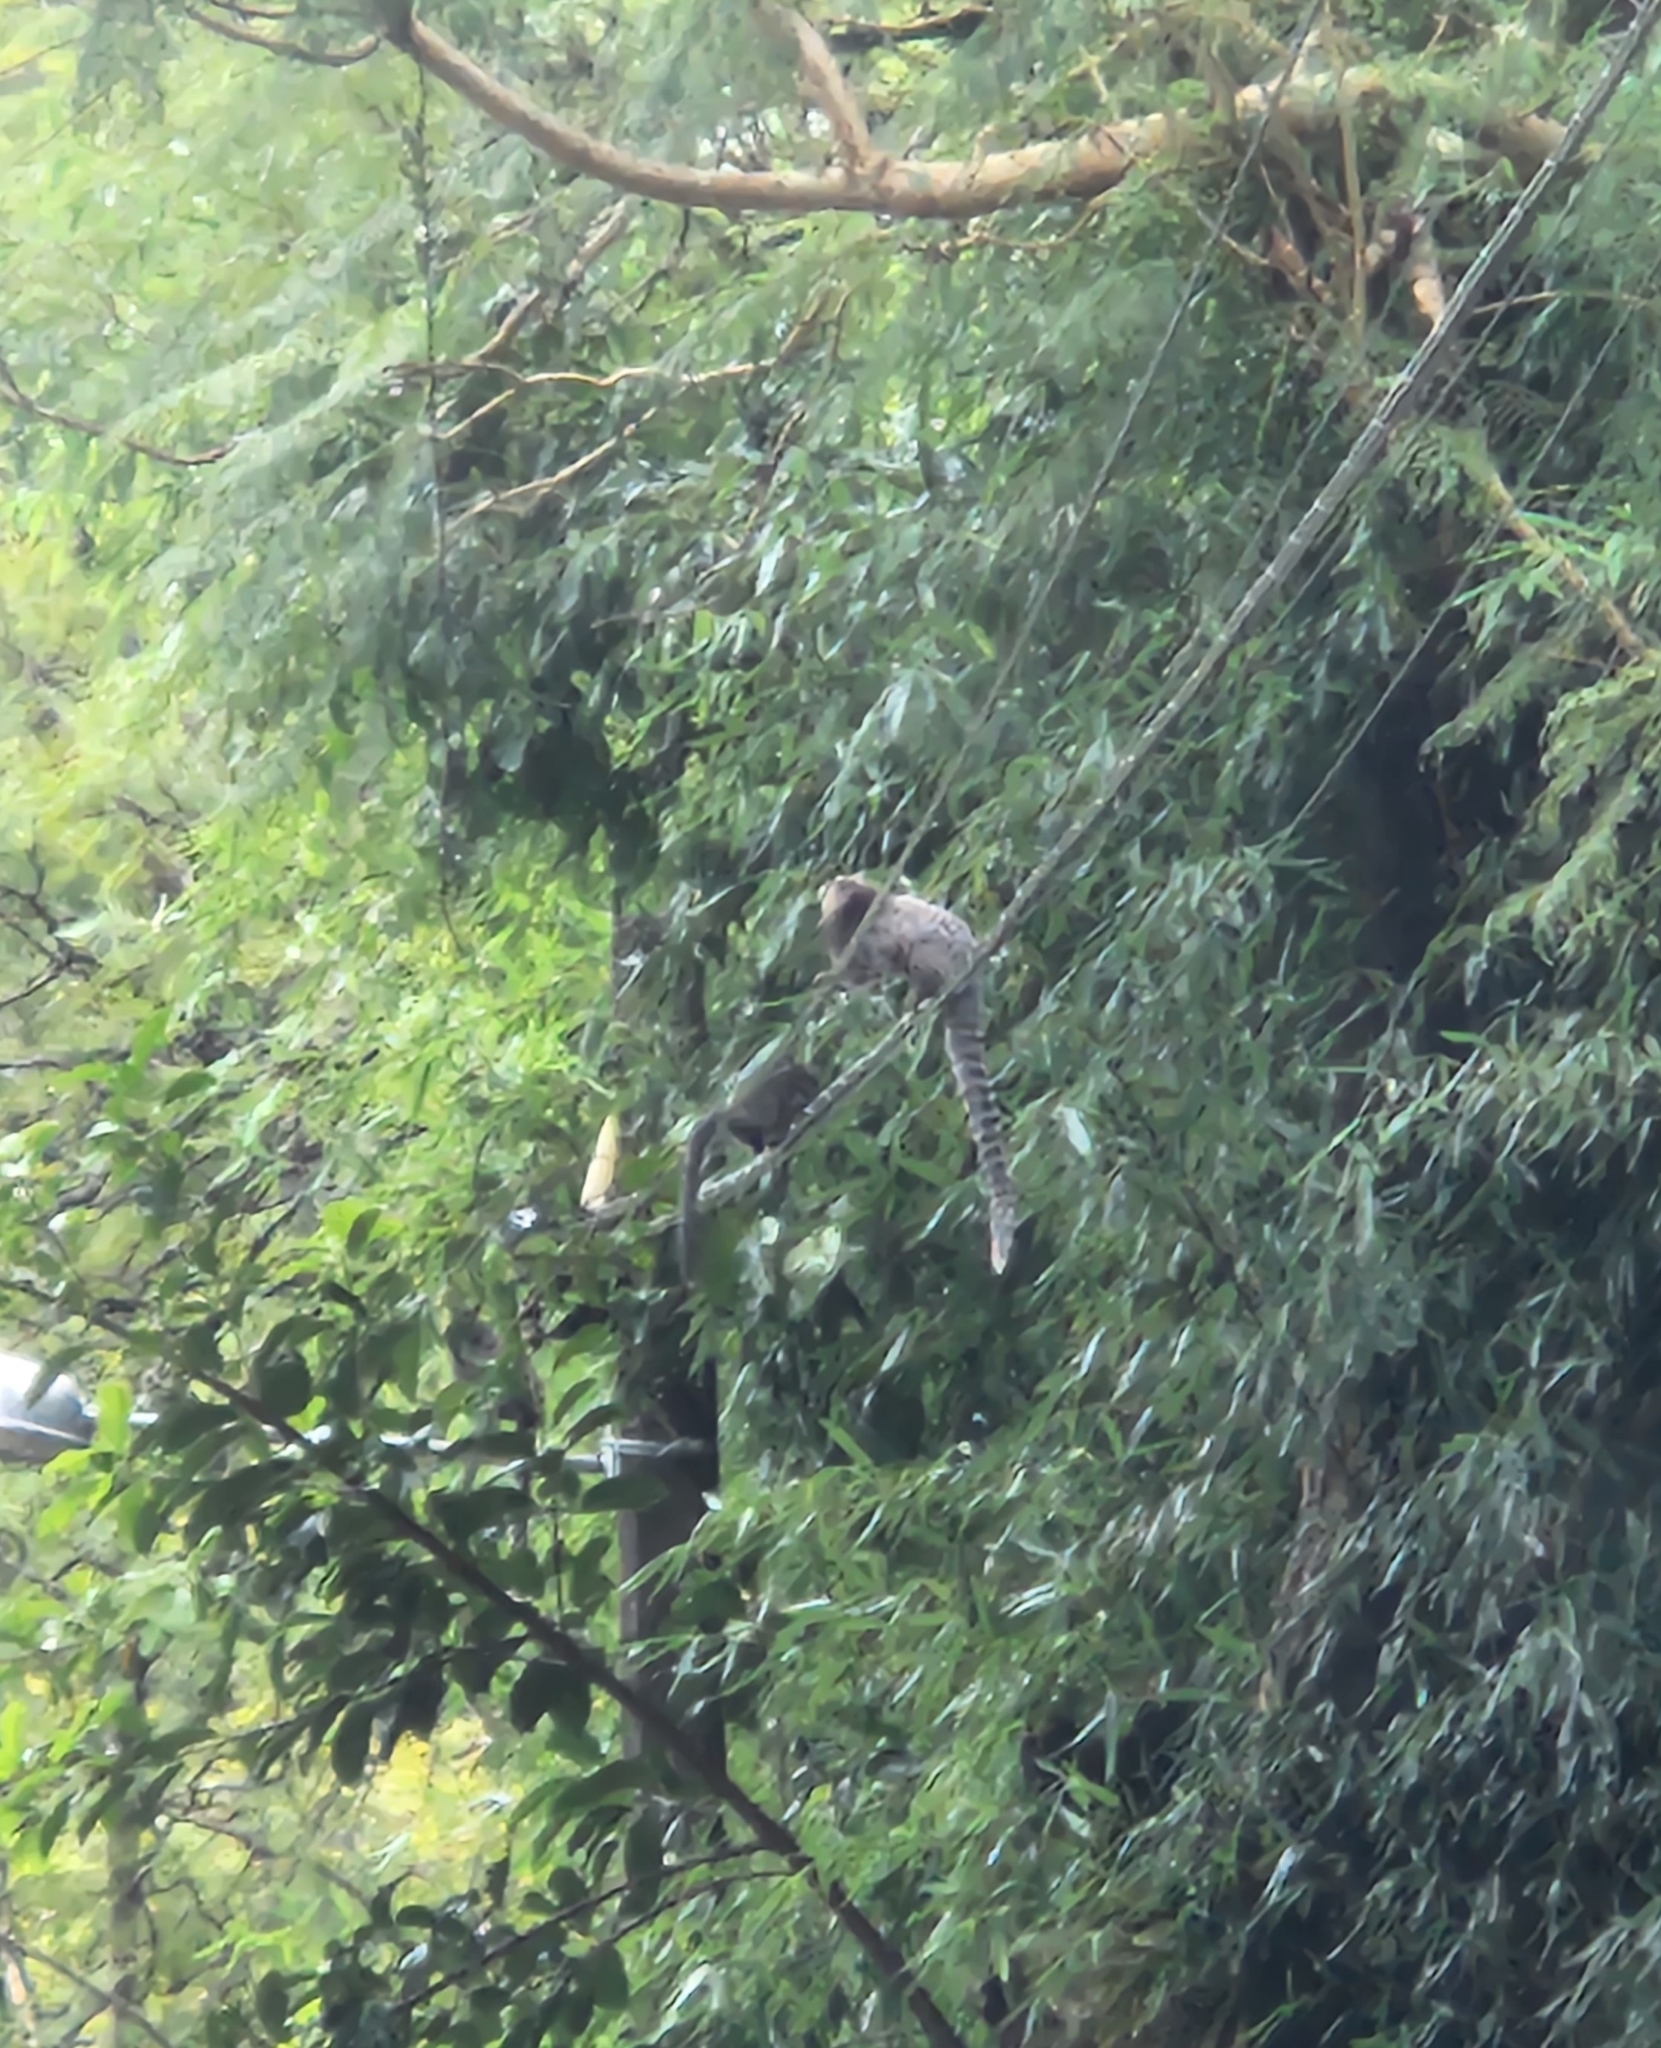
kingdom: Animalia
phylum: Chordata
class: Mammalia
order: Primates
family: Callitrichidae
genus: Callithrix
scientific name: Callithrix jacchus
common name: Common marmoset
